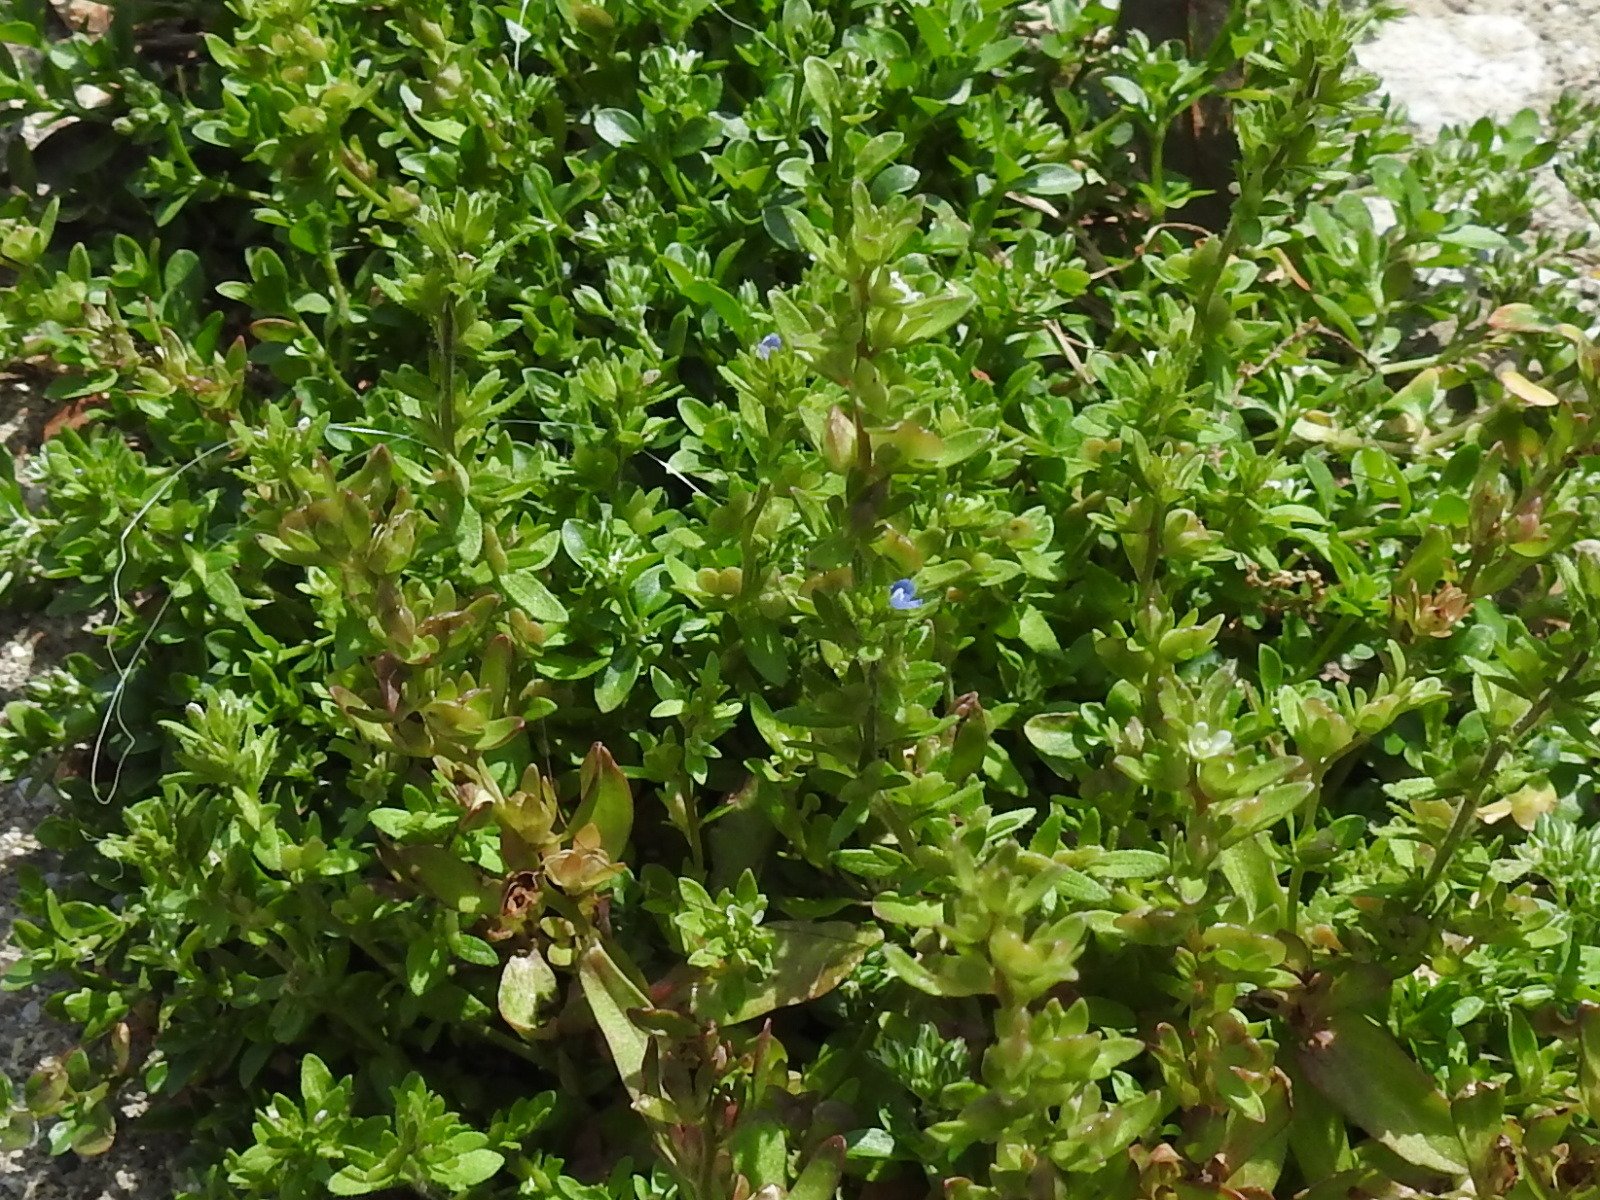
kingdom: Plantae
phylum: Tracheophyta
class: Magnoliopsida
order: Lamiales
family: Plantaginaceae
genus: Veronica
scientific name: Veronica arvensis
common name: Corn speedwell
